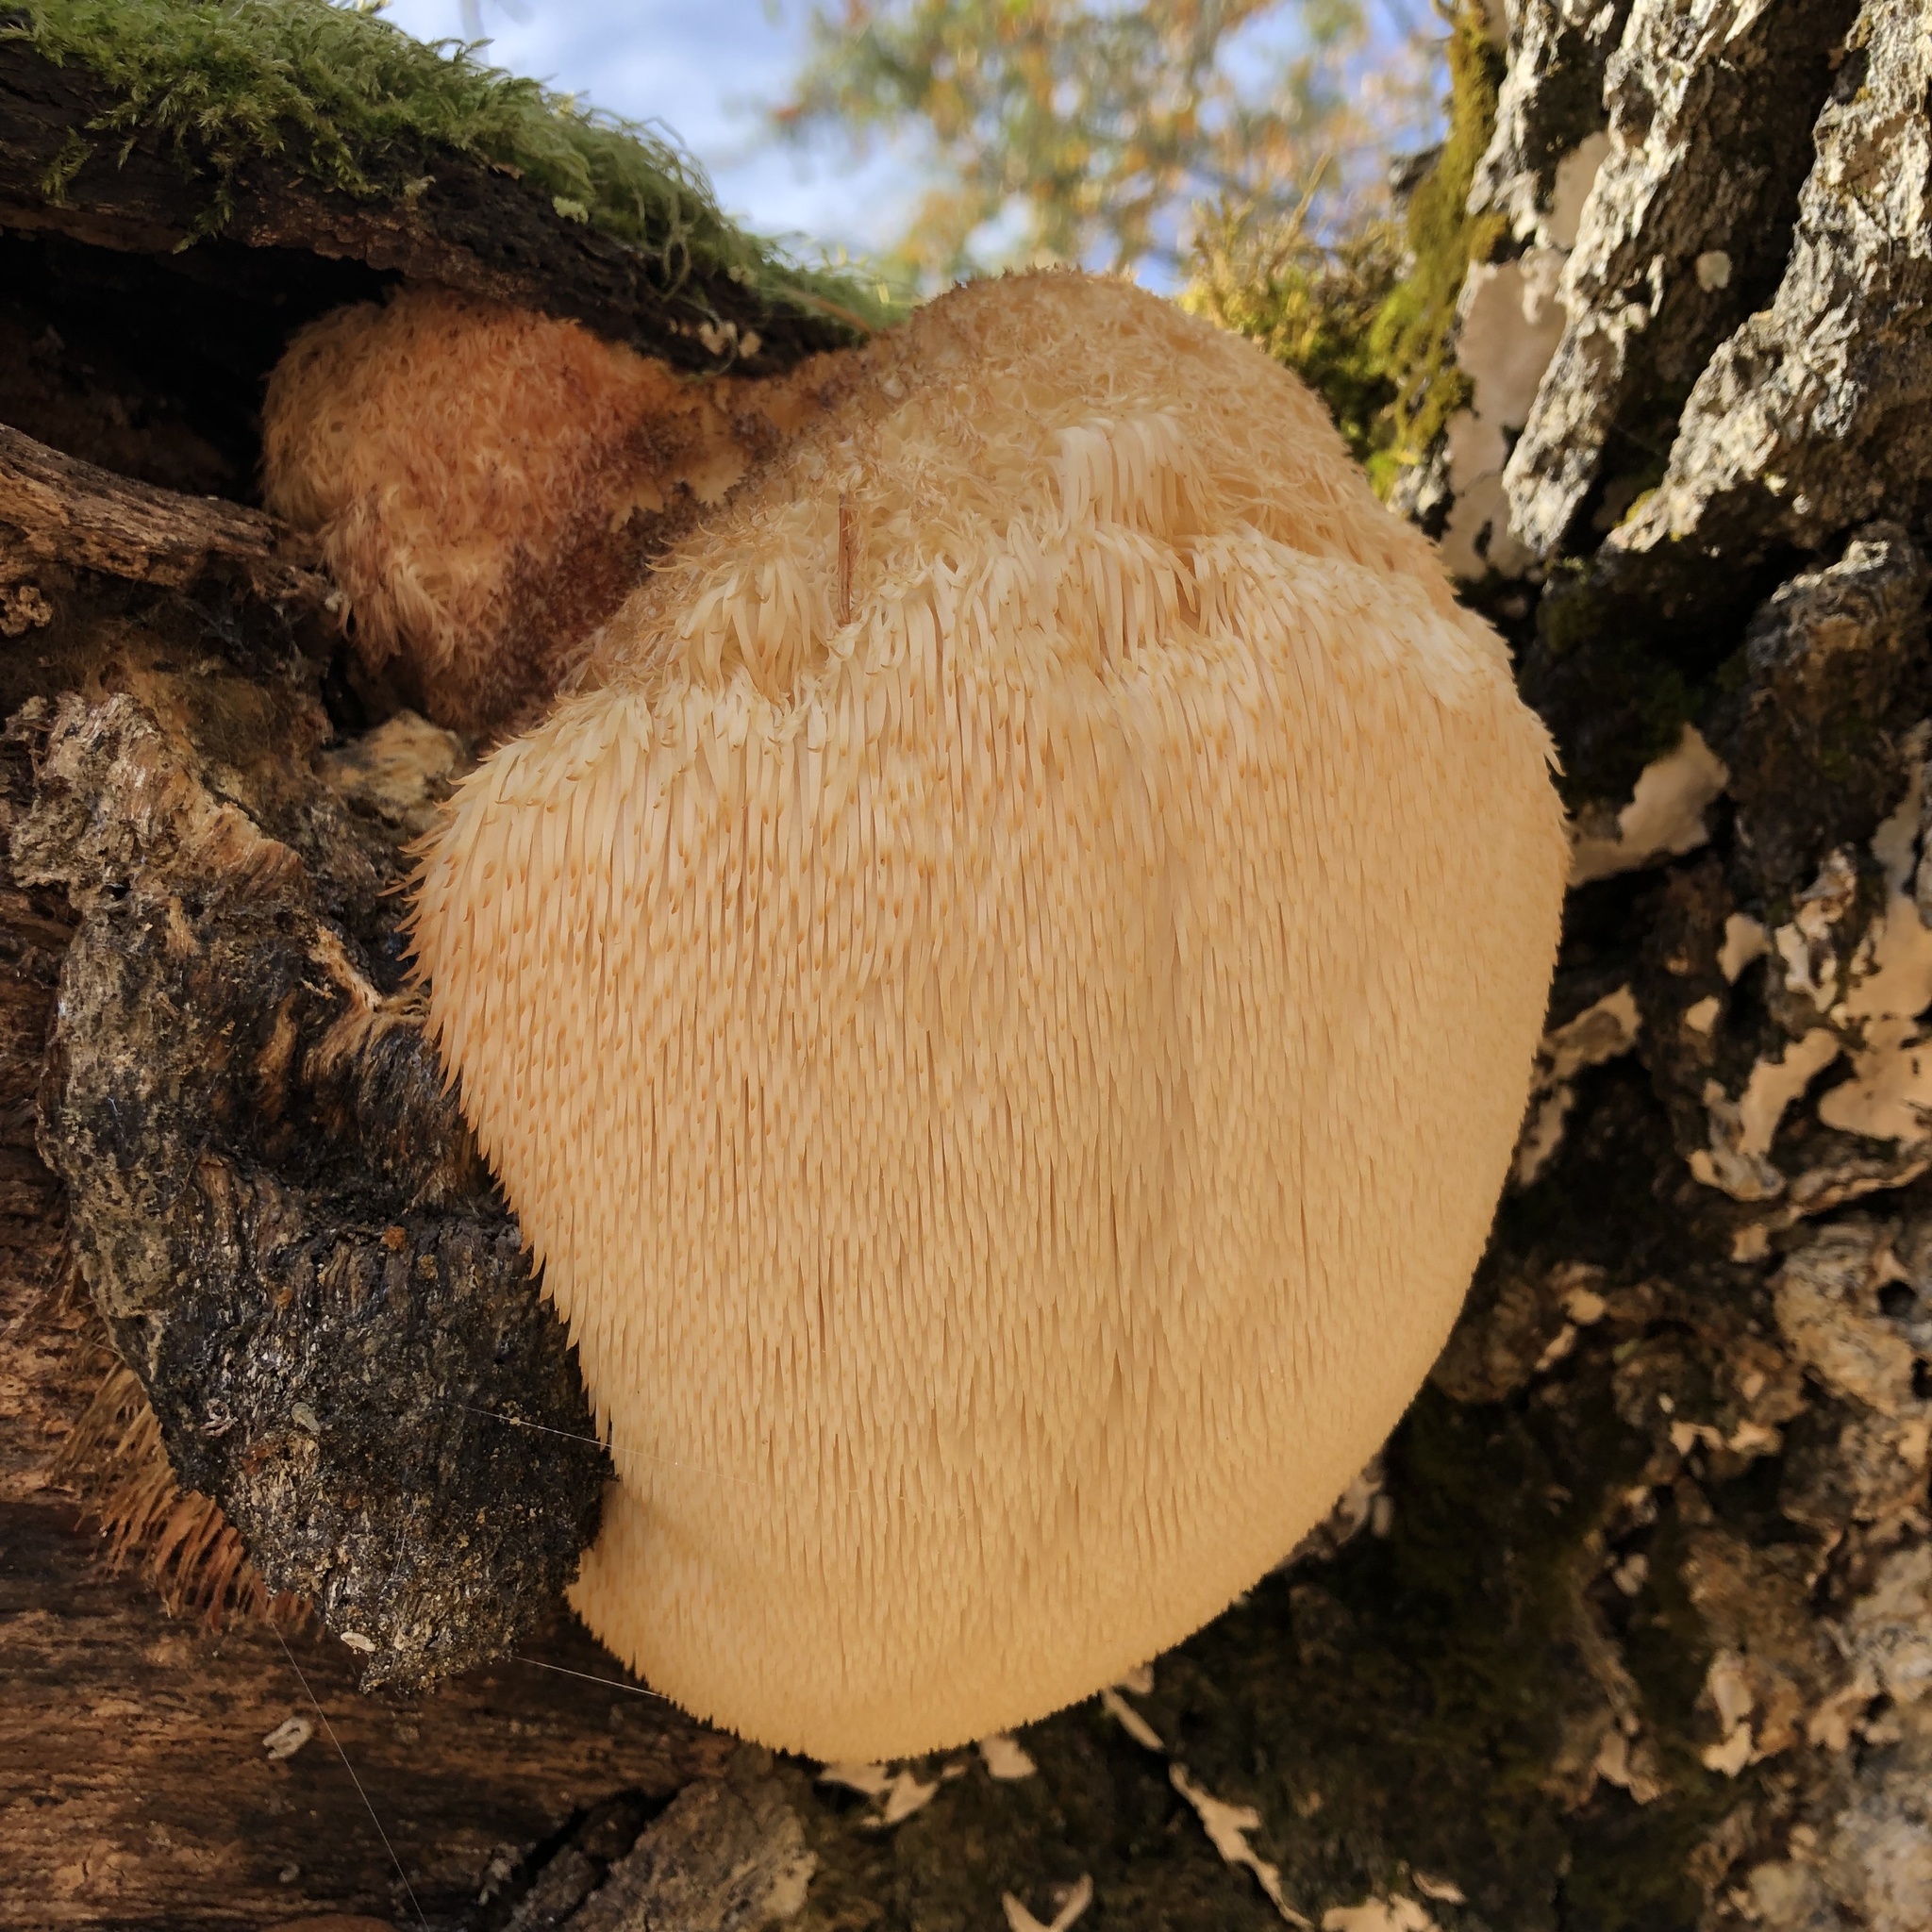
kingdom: Fungi
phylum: Basidiomycota
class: Agaricomycetes
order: Russulales
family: Hericiaceae
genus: Hericium
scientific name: Hericium erinaceus
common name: Bearded tooth
